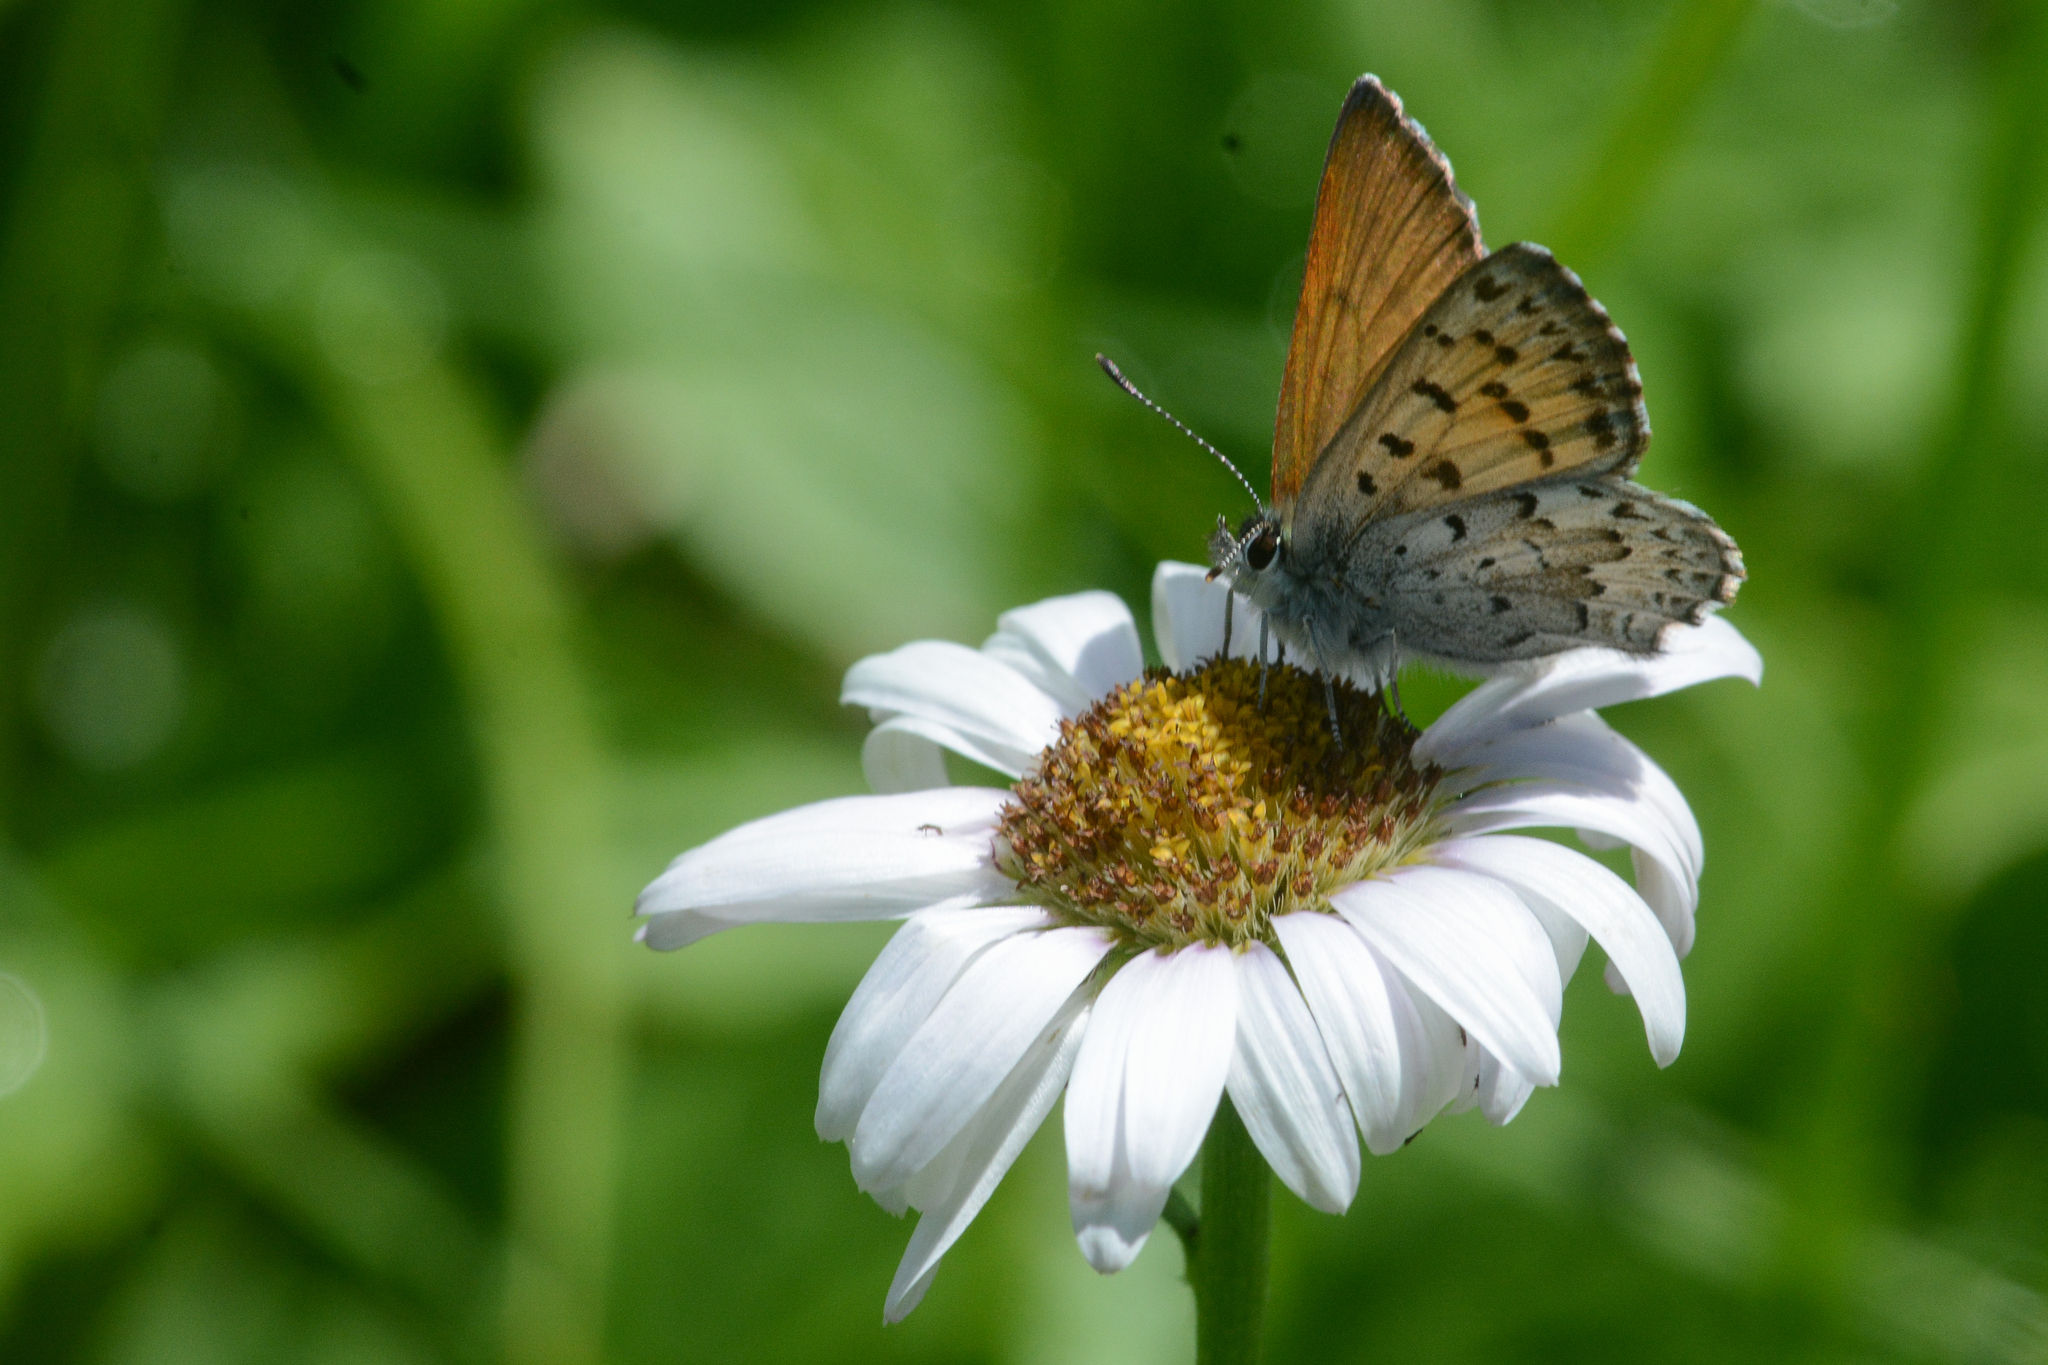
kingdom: Animalia
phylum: Arthropoda
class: Insecta
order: Lepidoptera
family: Lycaenidae
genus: Tharsalea
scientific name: Tharsalea mariposa
